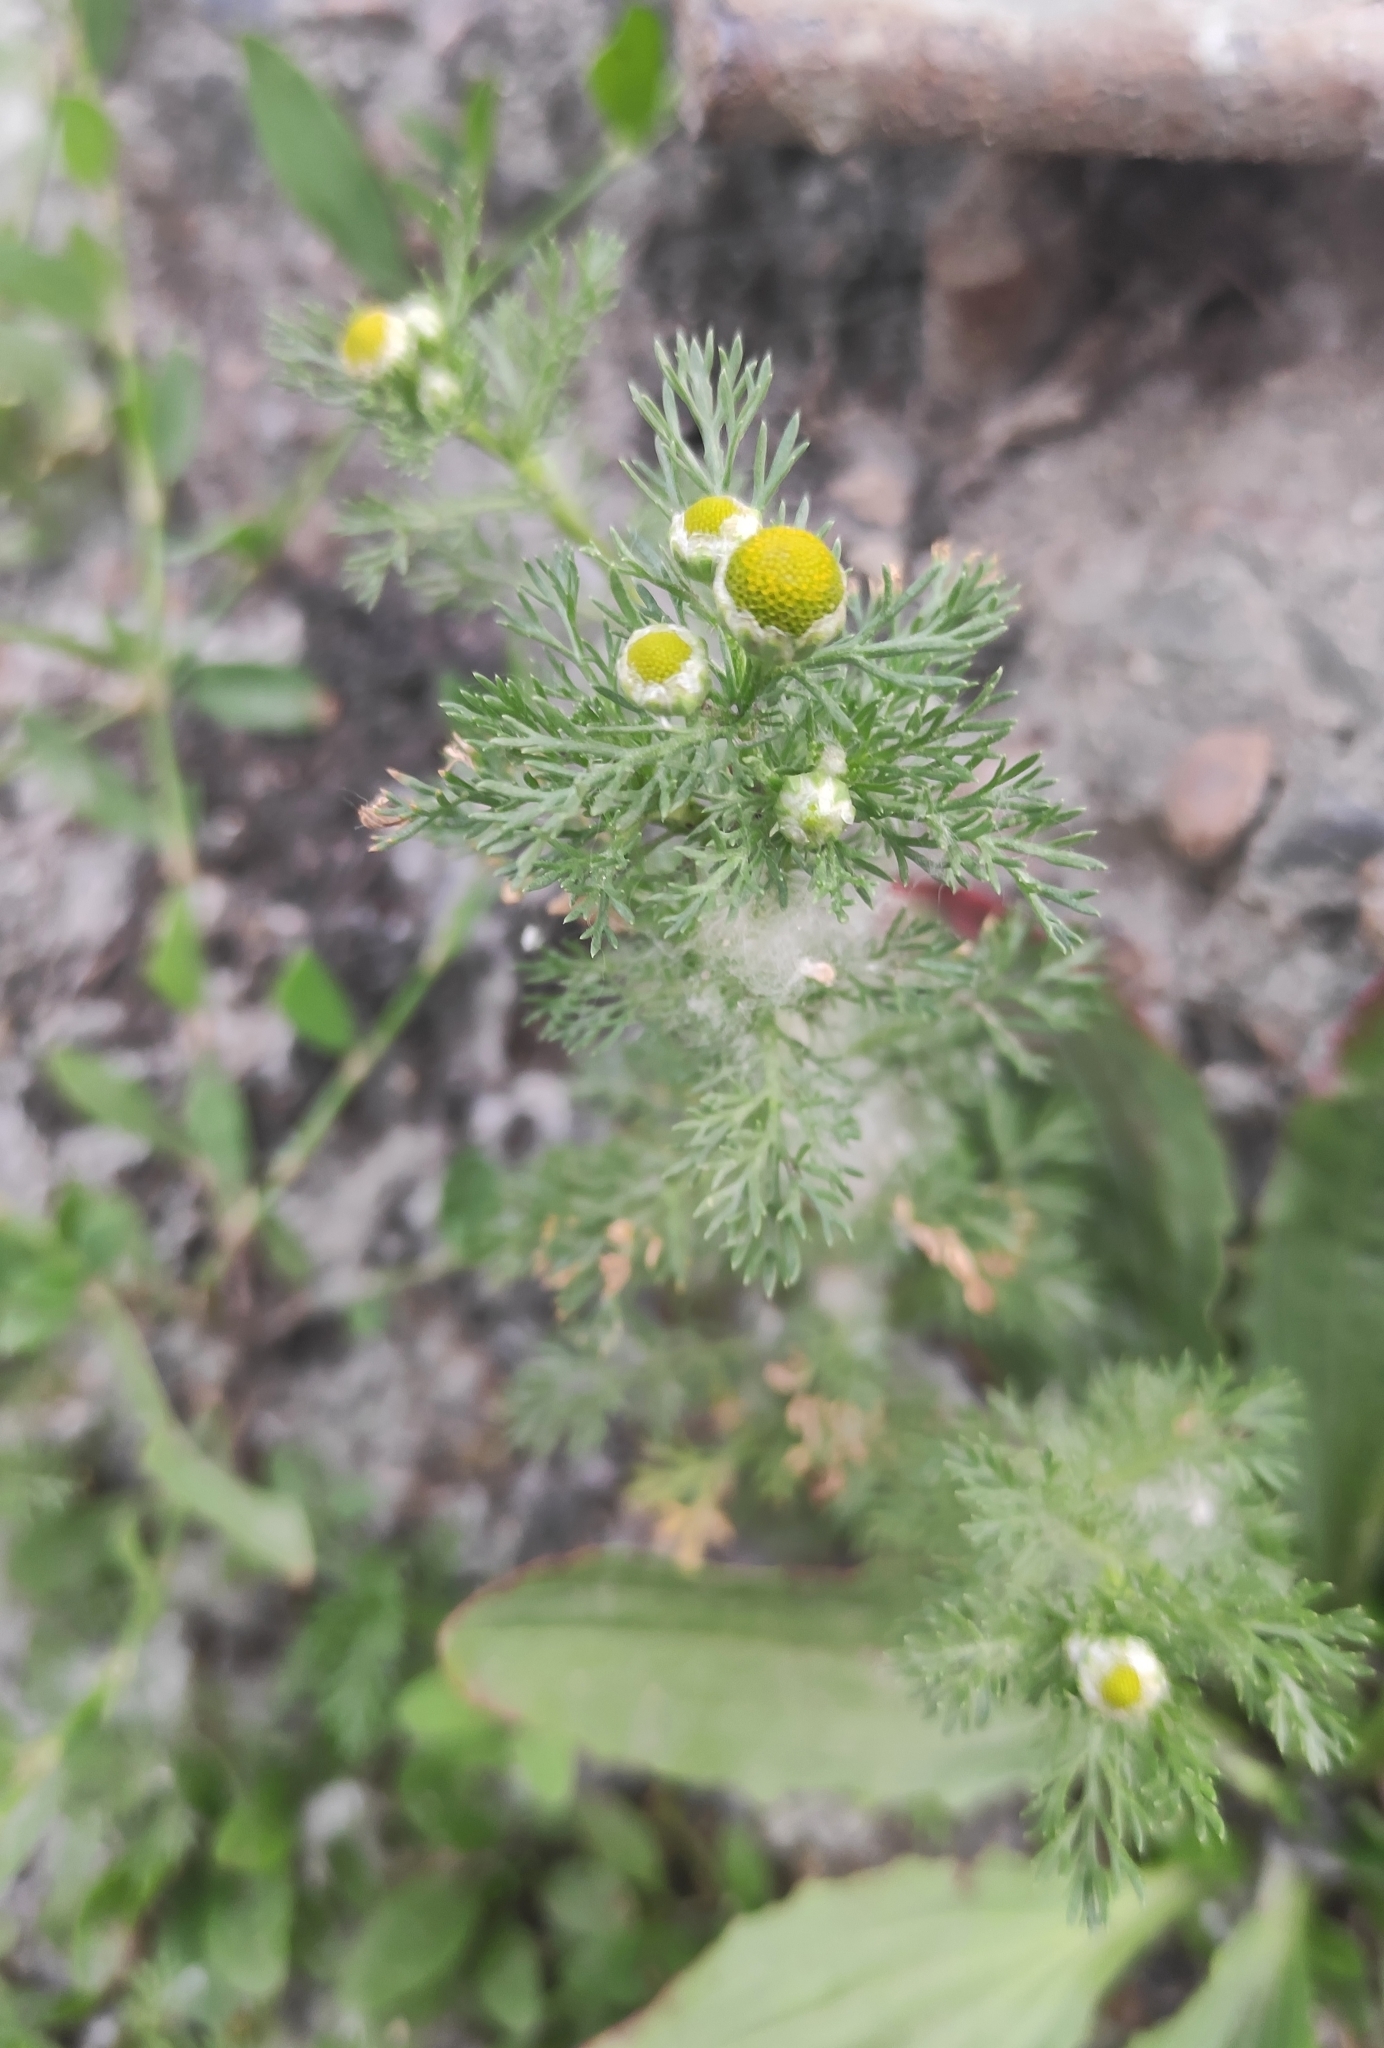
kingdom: Plantae
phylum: Tracheophyta
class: Magnoliopsida
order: Asterales
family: Asteraceae
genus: Matricaria
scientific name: Matricaria discoidea
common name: Disc mayweed
